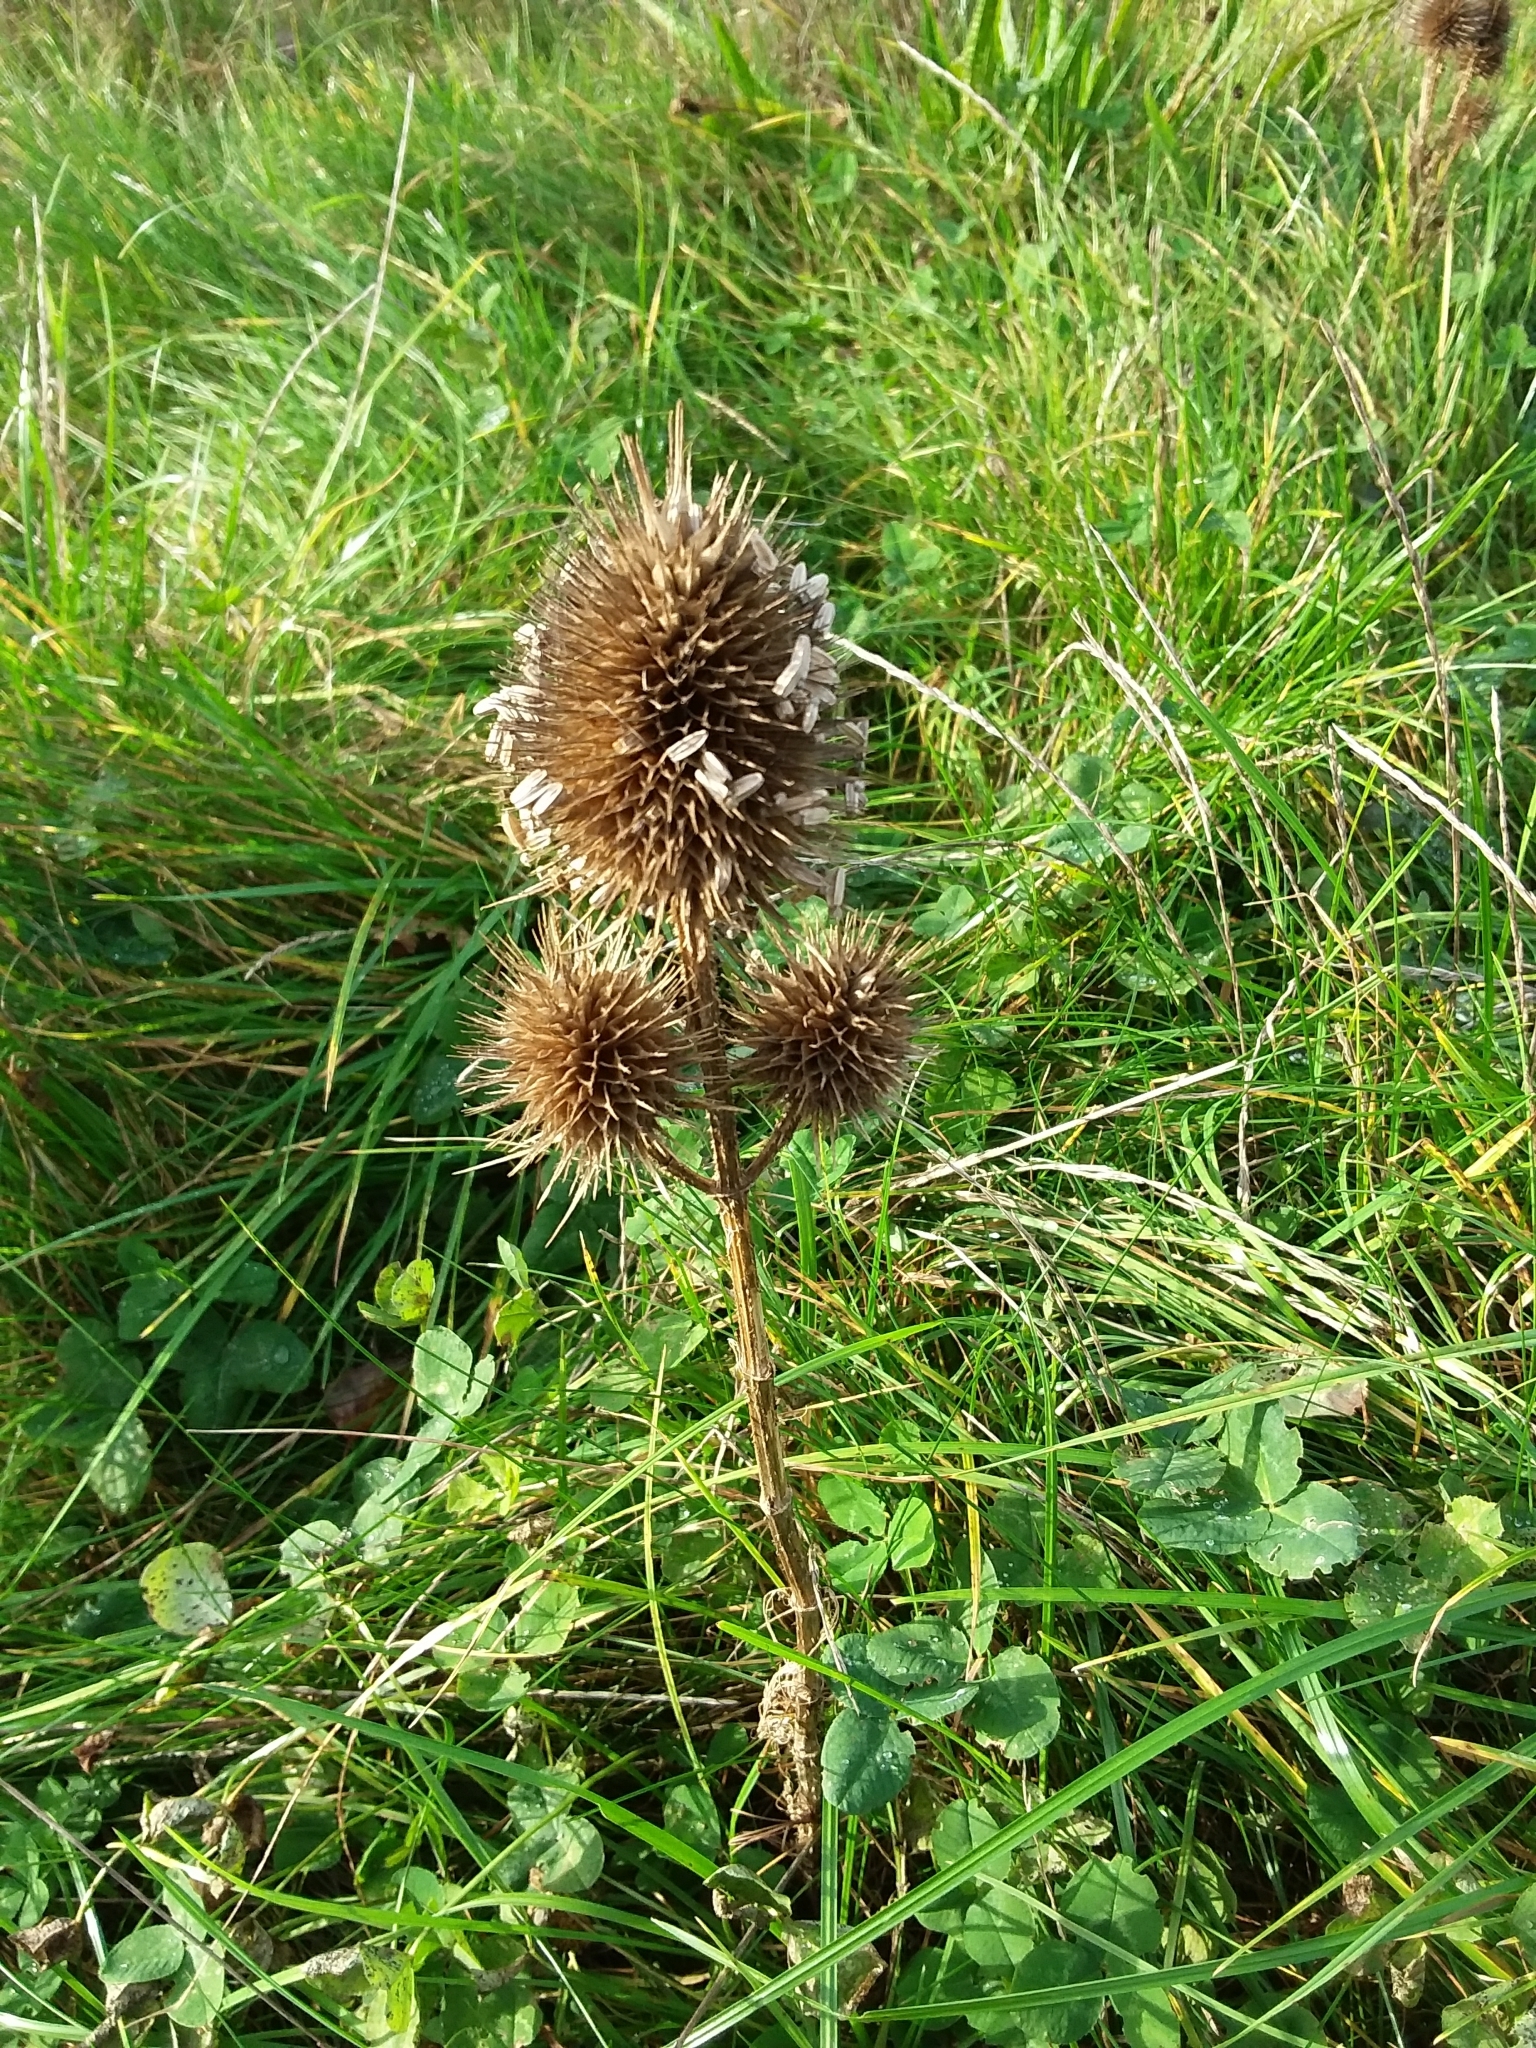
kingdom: Plantae
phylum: Tracheophyta
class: Magnoliopsida
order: Dipsacales
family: Caprifoliaceae
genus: Dipsacus
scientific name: Dipsacus fullonum
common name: Teasel
